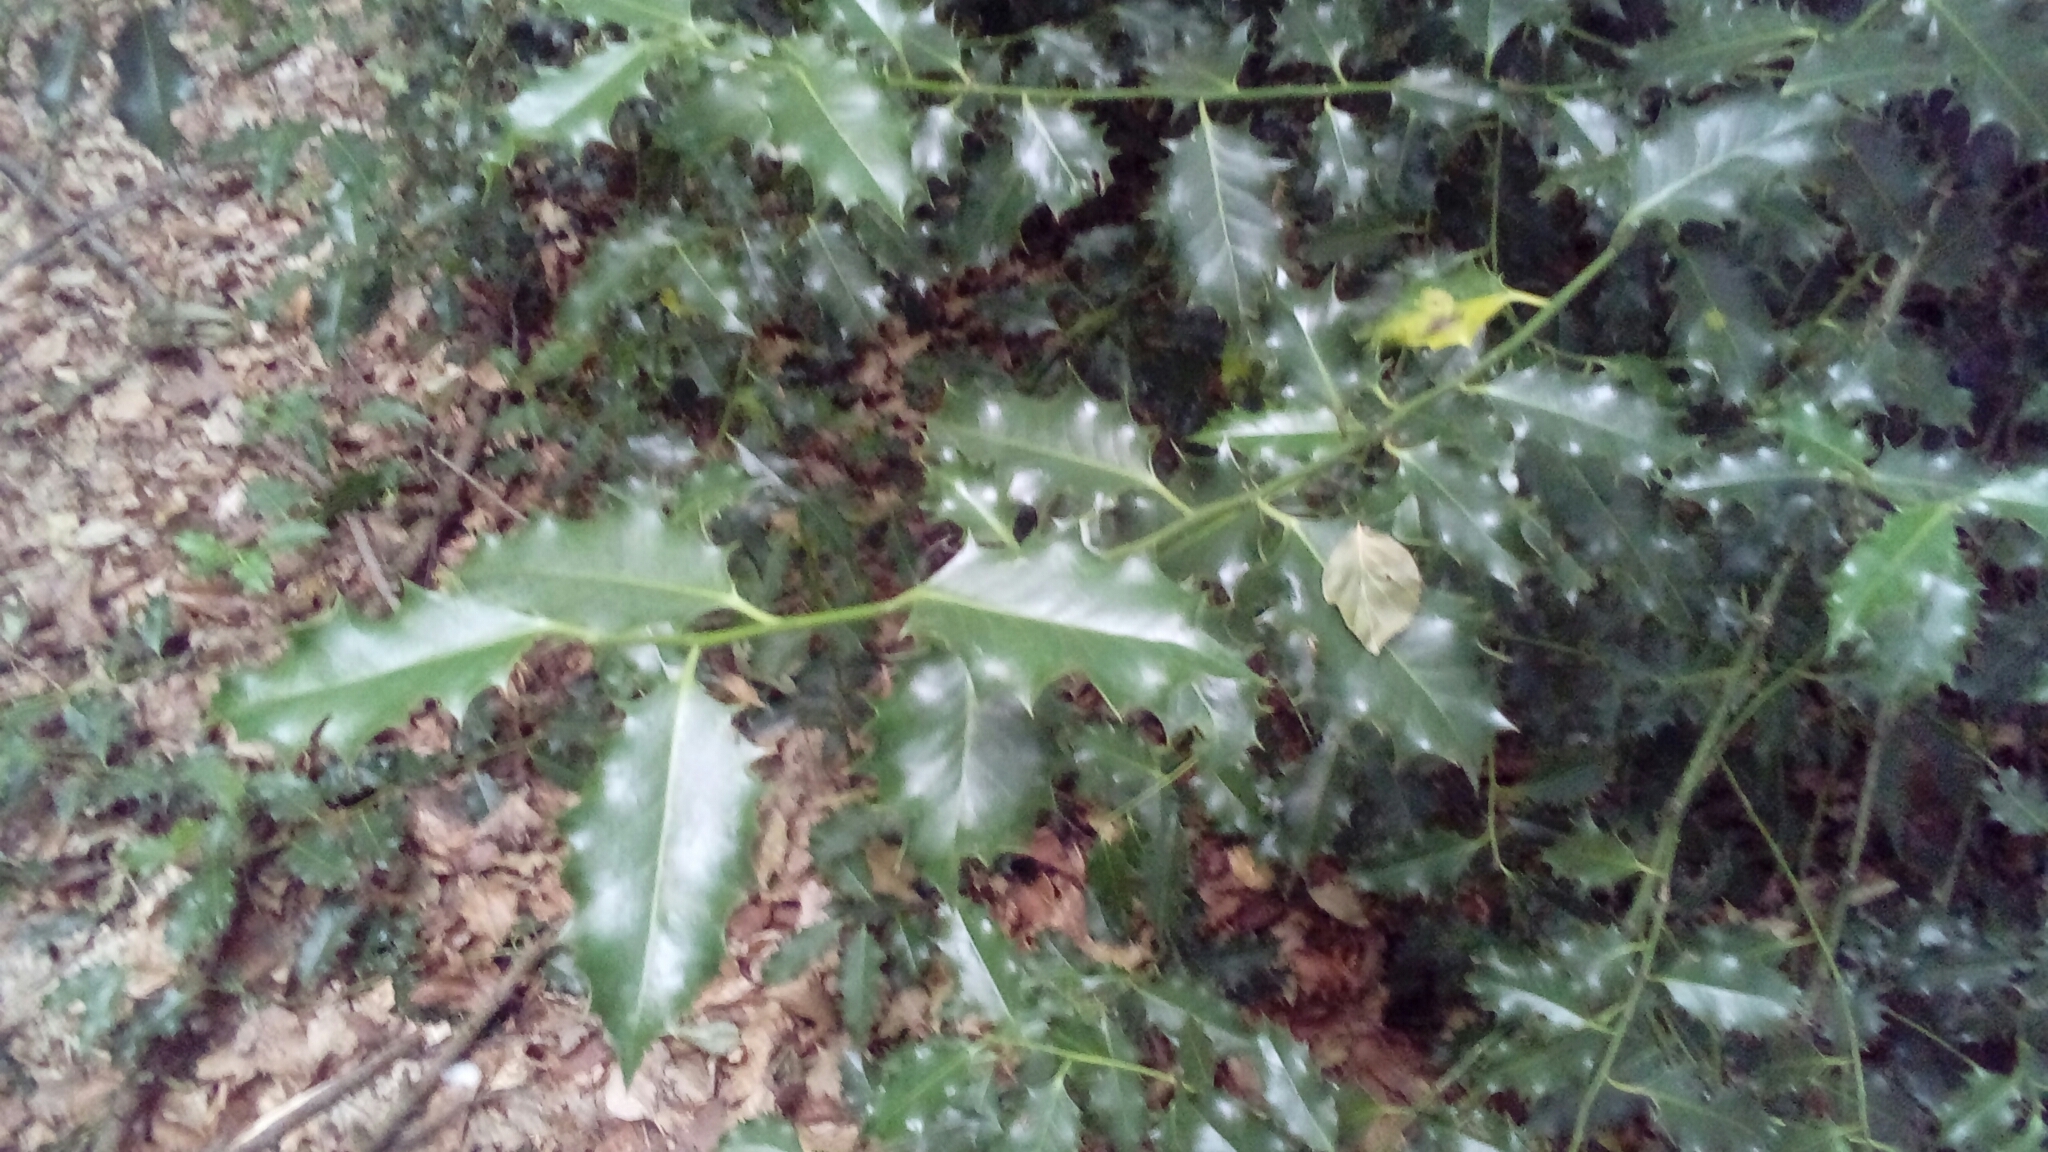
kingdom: Plantae
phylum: Tracheophyta
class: Magnoliopsida
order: Aquifoliales
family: Aquifoliaceae
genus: Ilex
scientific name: Ilex aquifolium
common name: English holly
